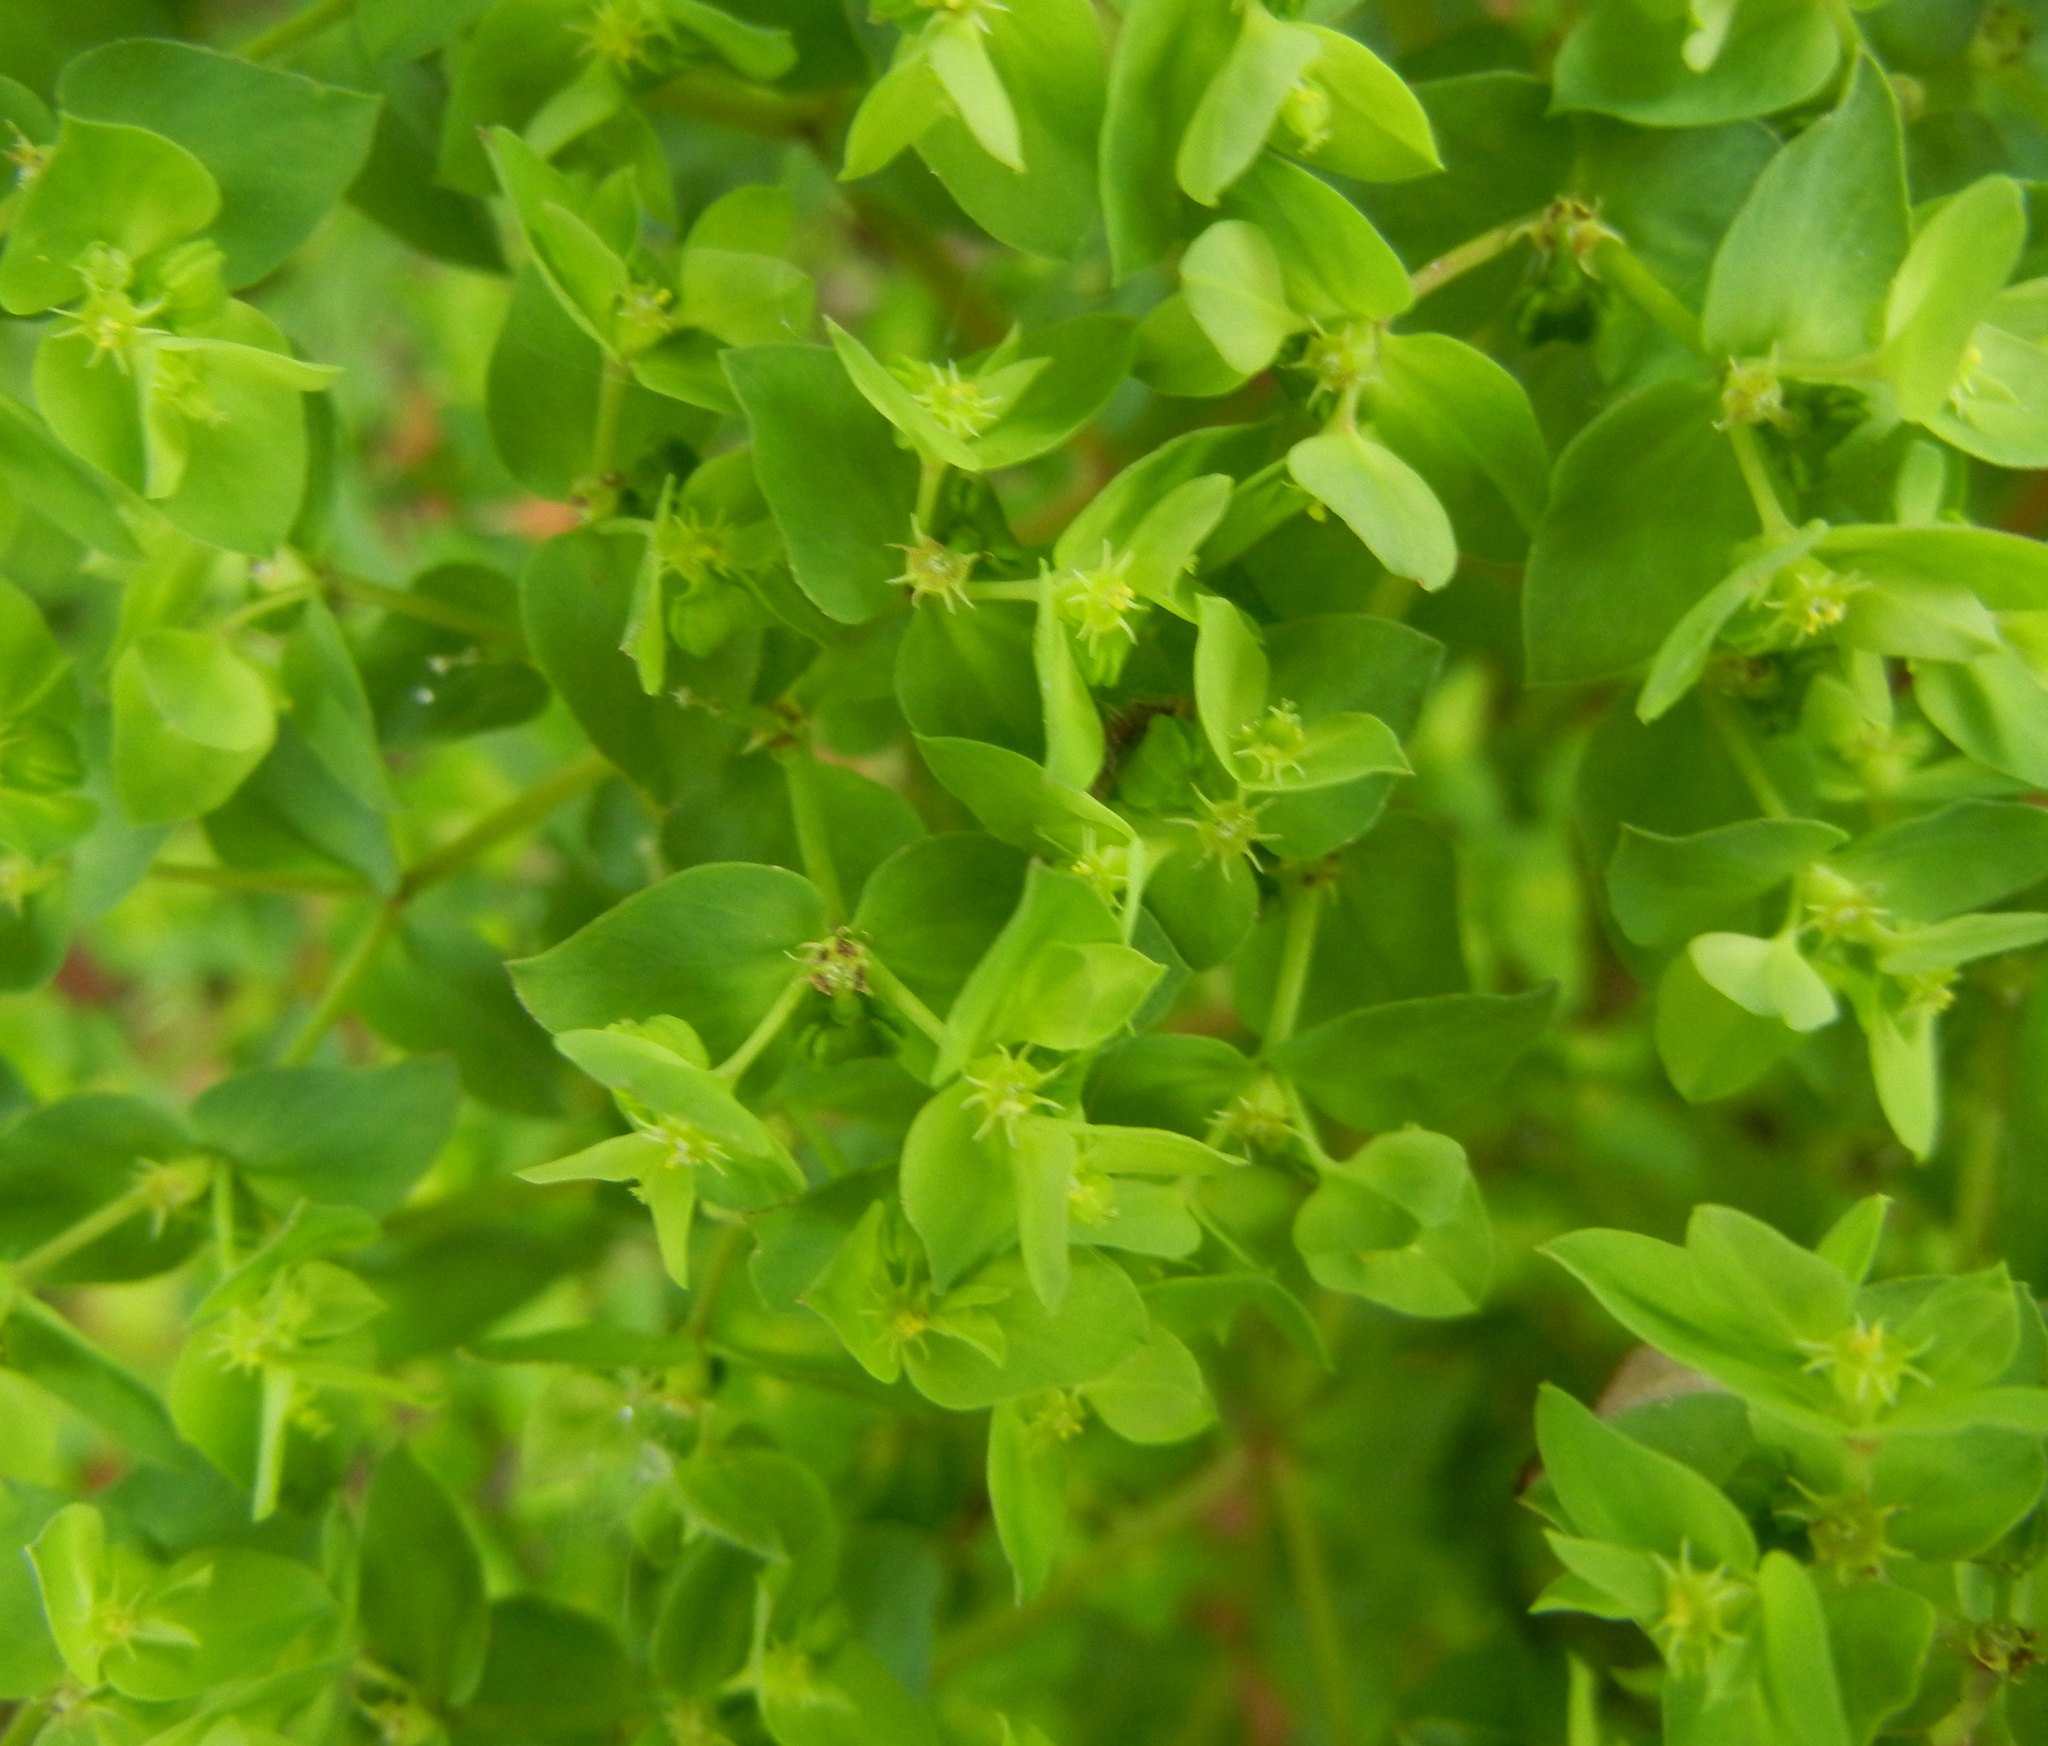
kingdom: Plantae
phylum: Tracheophyta
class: Magnoliopsida
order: Malpighiales
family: Euphorbiaceae
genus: Euphorbia
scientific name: Euphorbia peplus
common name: Petty spurge
